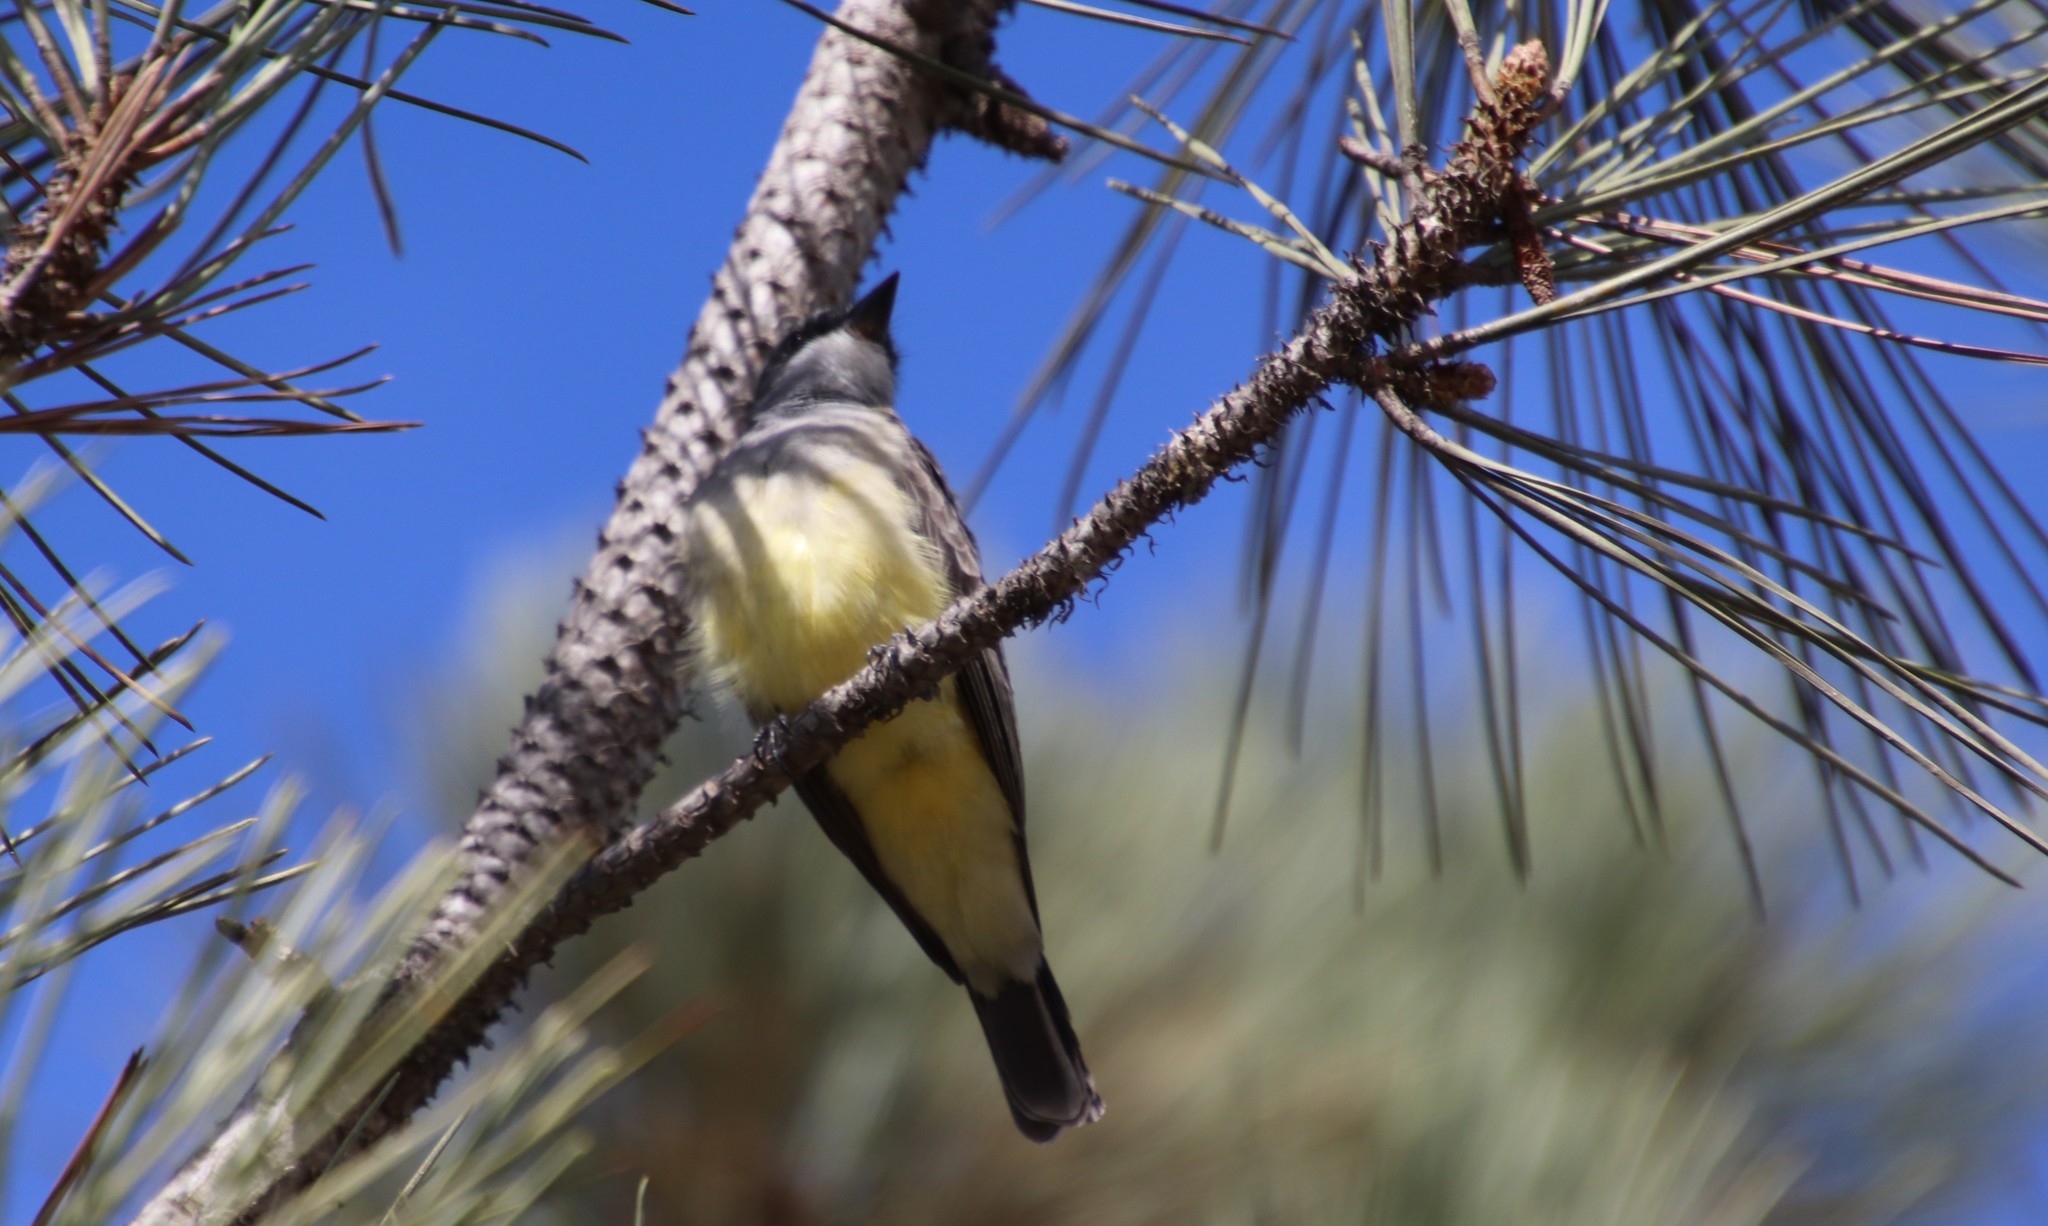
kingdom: Animalia
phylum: Chordata
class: Aves
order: Passeriformes
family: Tyrannidae
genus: Tyrannus
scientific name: Tyrannus vociferans
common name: Cassin's kingbird
